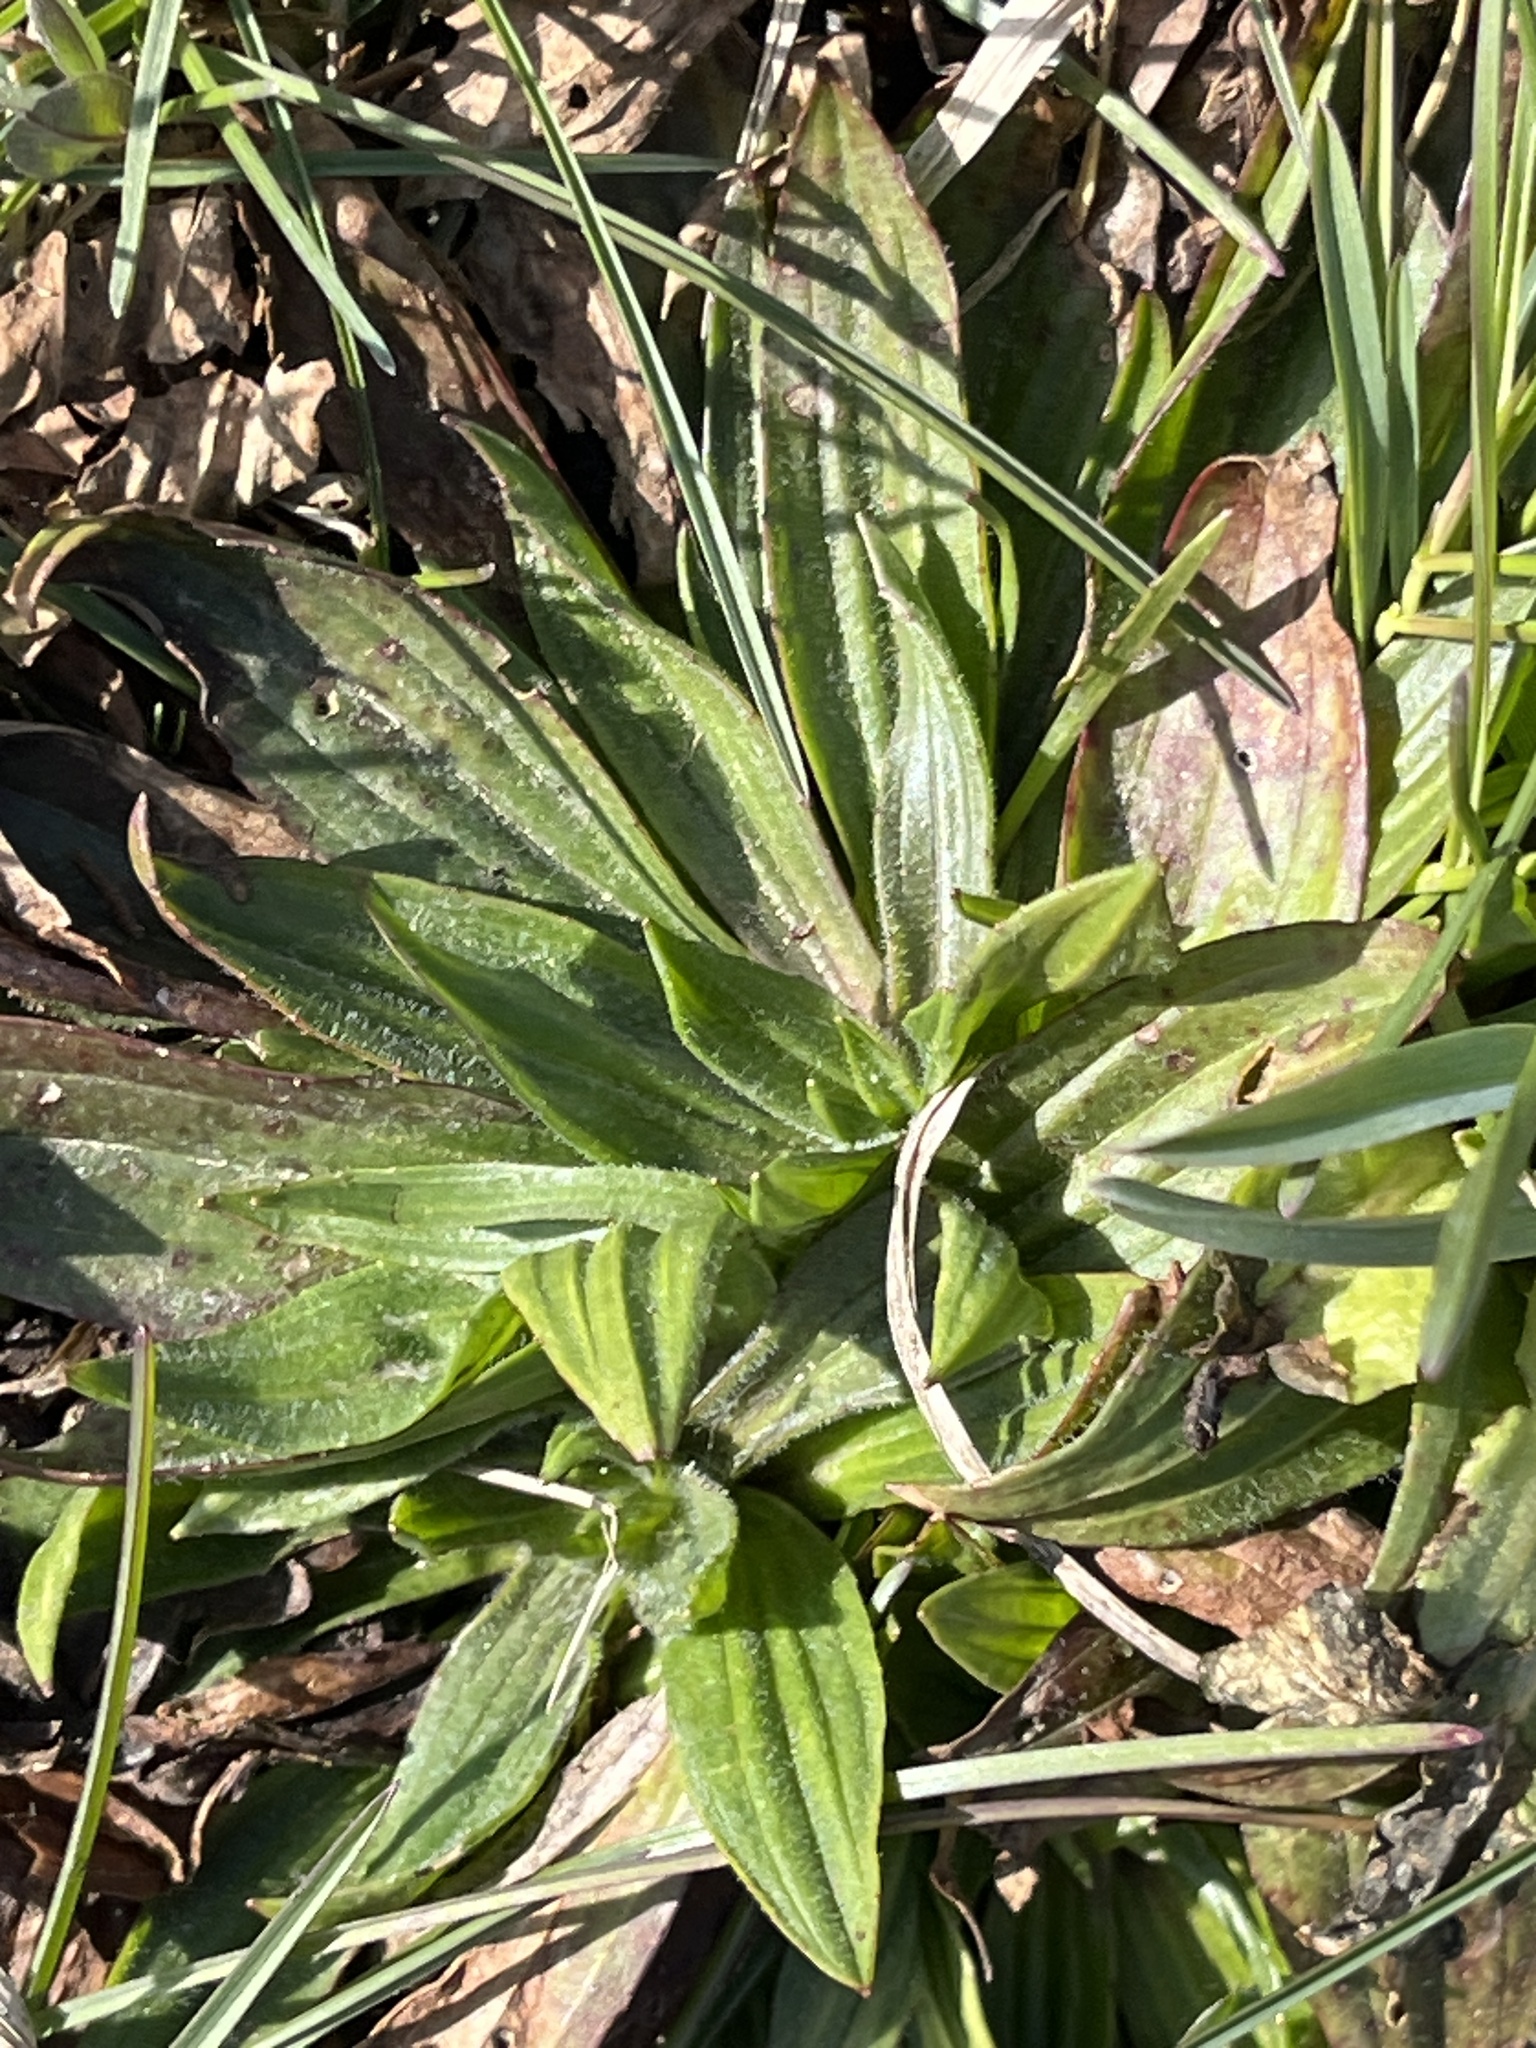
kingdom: Plantae
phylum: Tracheophyta
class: Magnoliopsida
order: Lamiales
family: Plantaginaceae
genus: Plantago
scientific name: Plantago lanceolata
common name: Ribwort plantain
